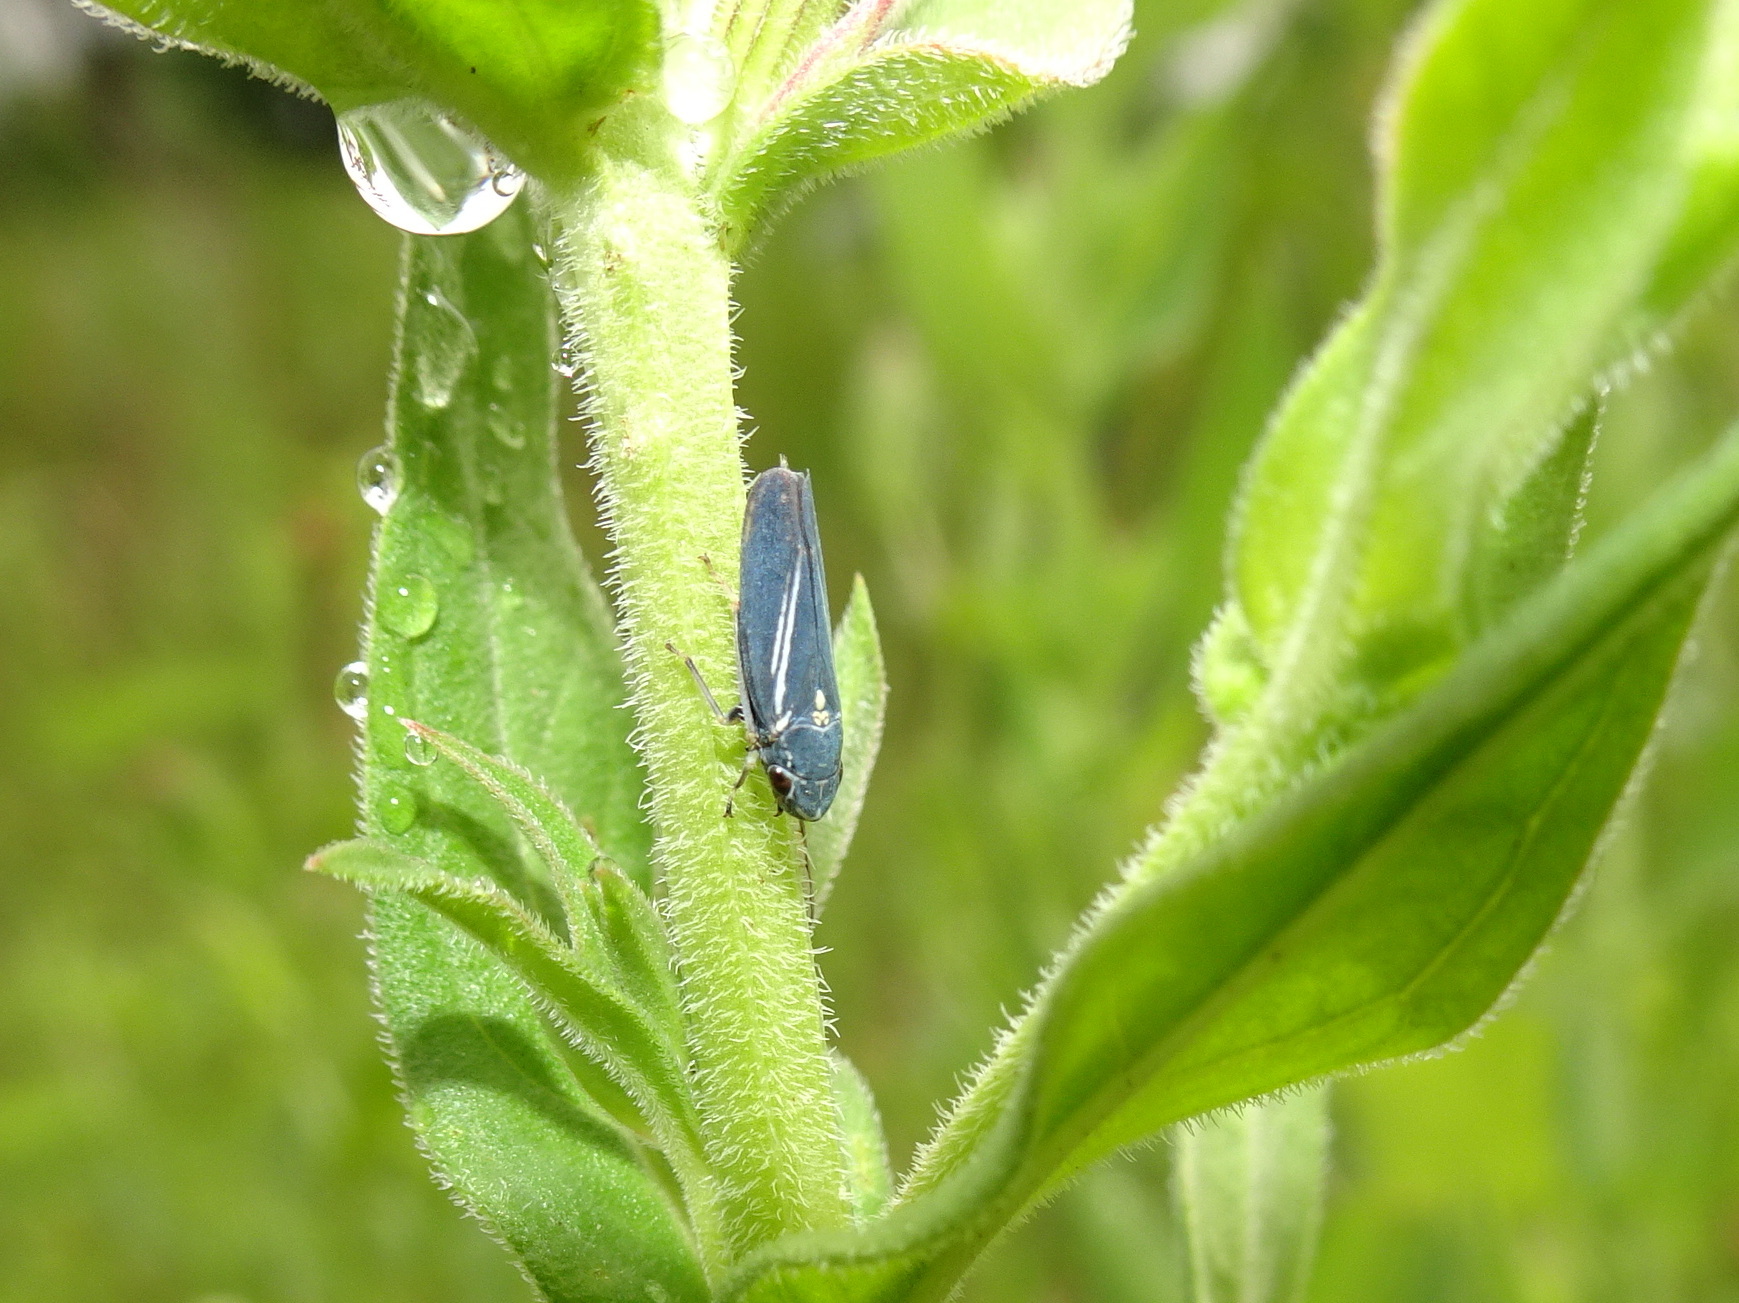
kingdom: Animalia
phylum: Arthropoda
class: Insecta
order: Hemiptera
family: Cicadellidae
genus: Neokolla
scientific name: Neokolla hieroglyphica
